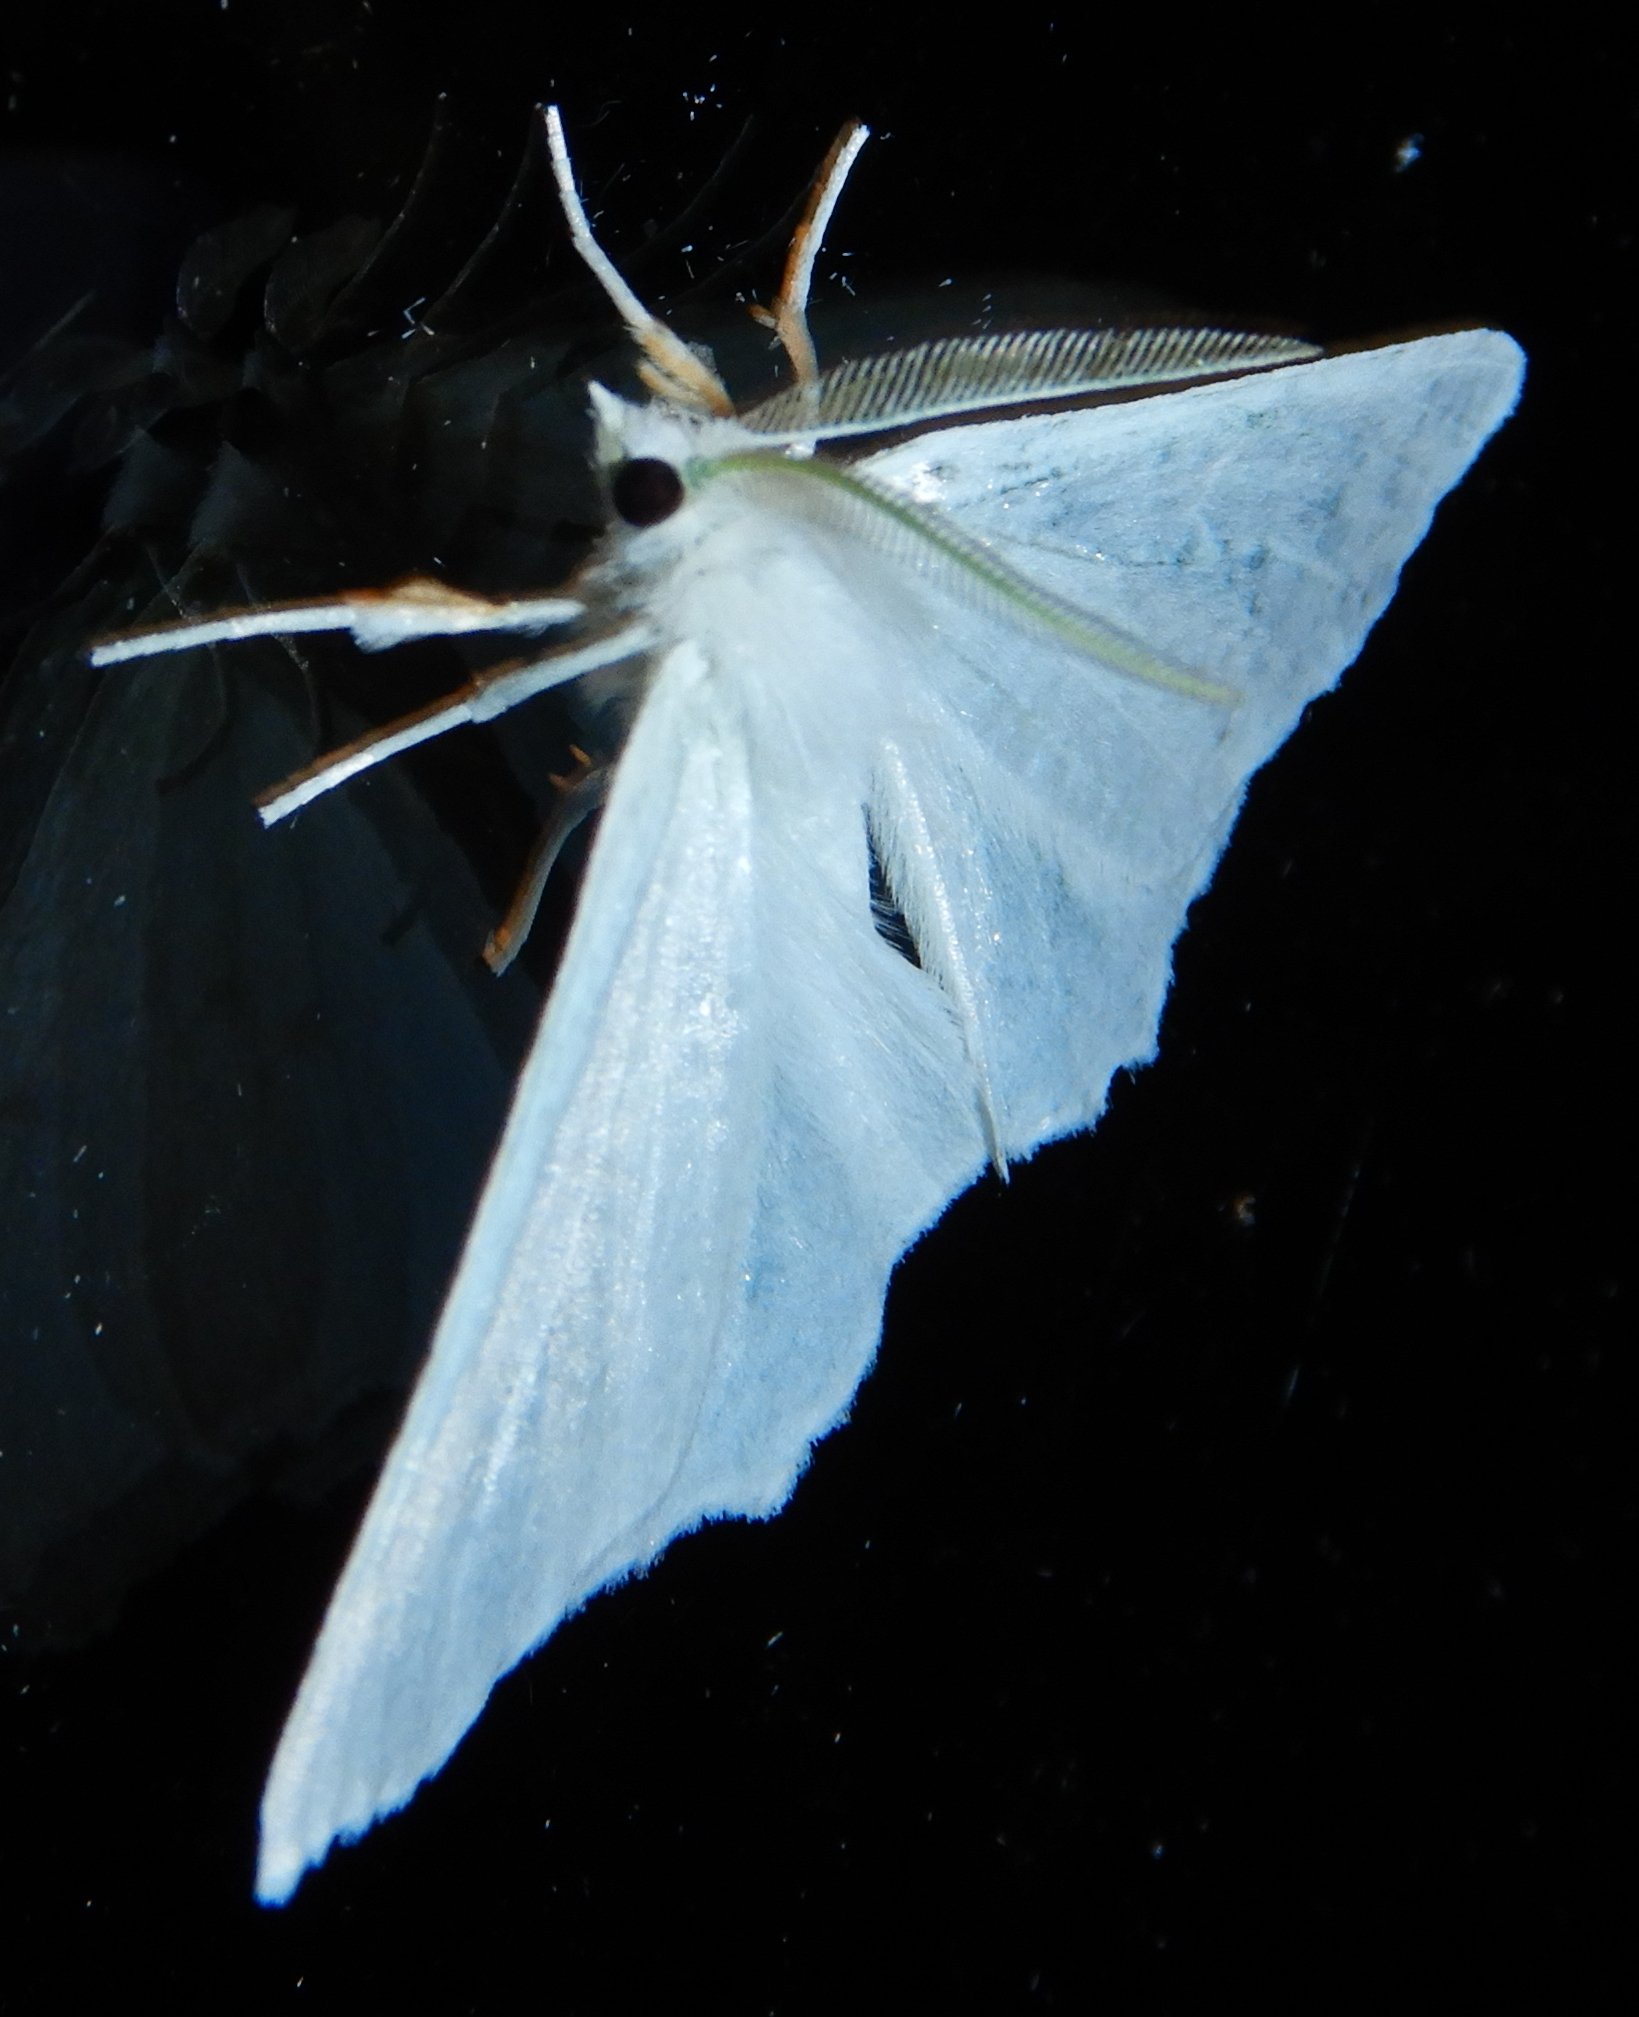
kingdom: Animalia
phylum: Arthropoda
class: Insecta
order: Lepidoptera
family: Geometridae
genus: Ennomos
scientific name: Ennomos subsignaria
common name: Elm spanworm
